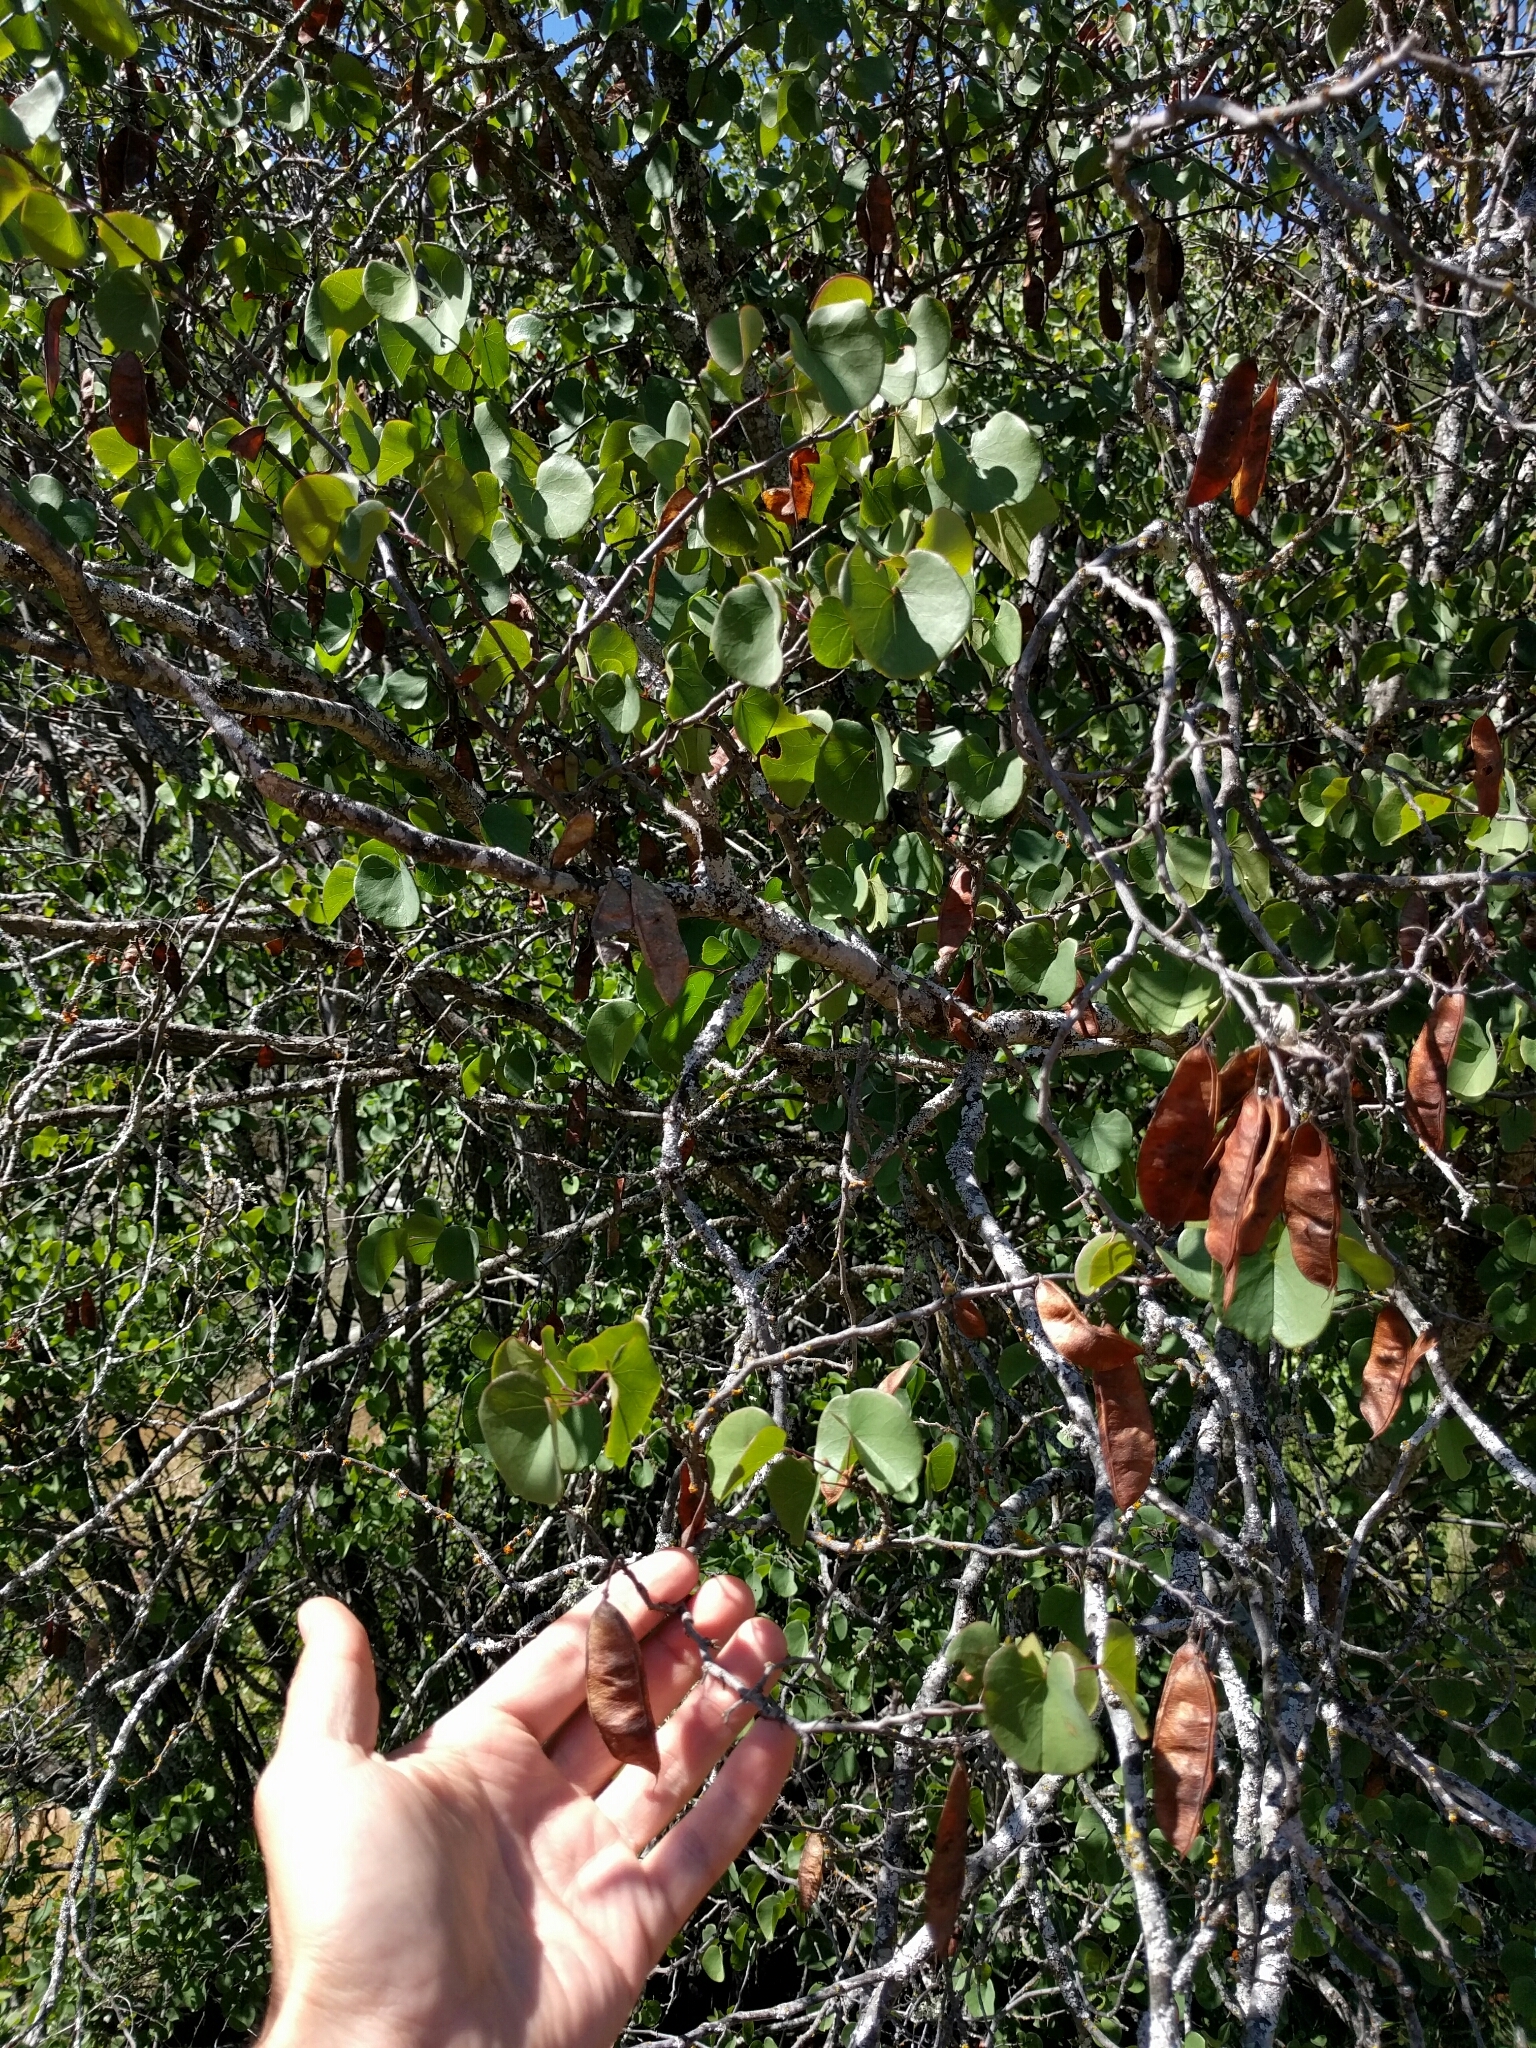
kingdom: Plantae
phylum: Tracheophyta
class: Magnoliopsida
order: Fabales
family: Fabaceae
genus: Cercis
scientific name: Cercis occidentalis
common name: California redbud
